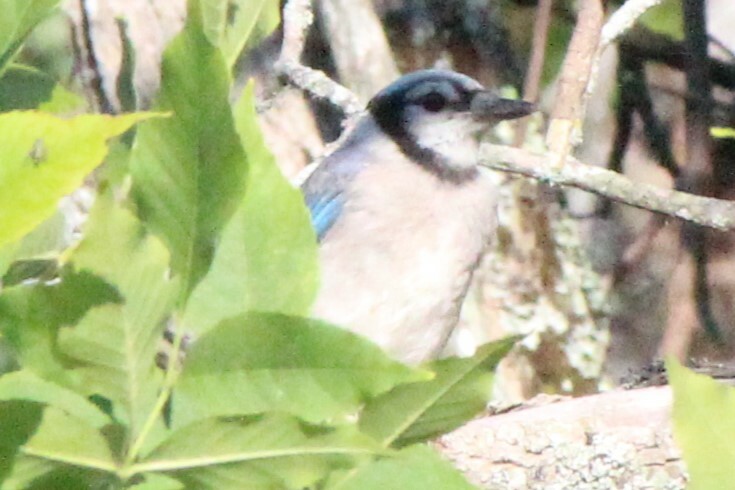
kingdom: Animalia
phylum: Chordata
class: Aves
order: Passeriformes
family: Corvidae
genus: Cyanocitta
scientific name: Cyanocitta cristata
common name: Blue jay
